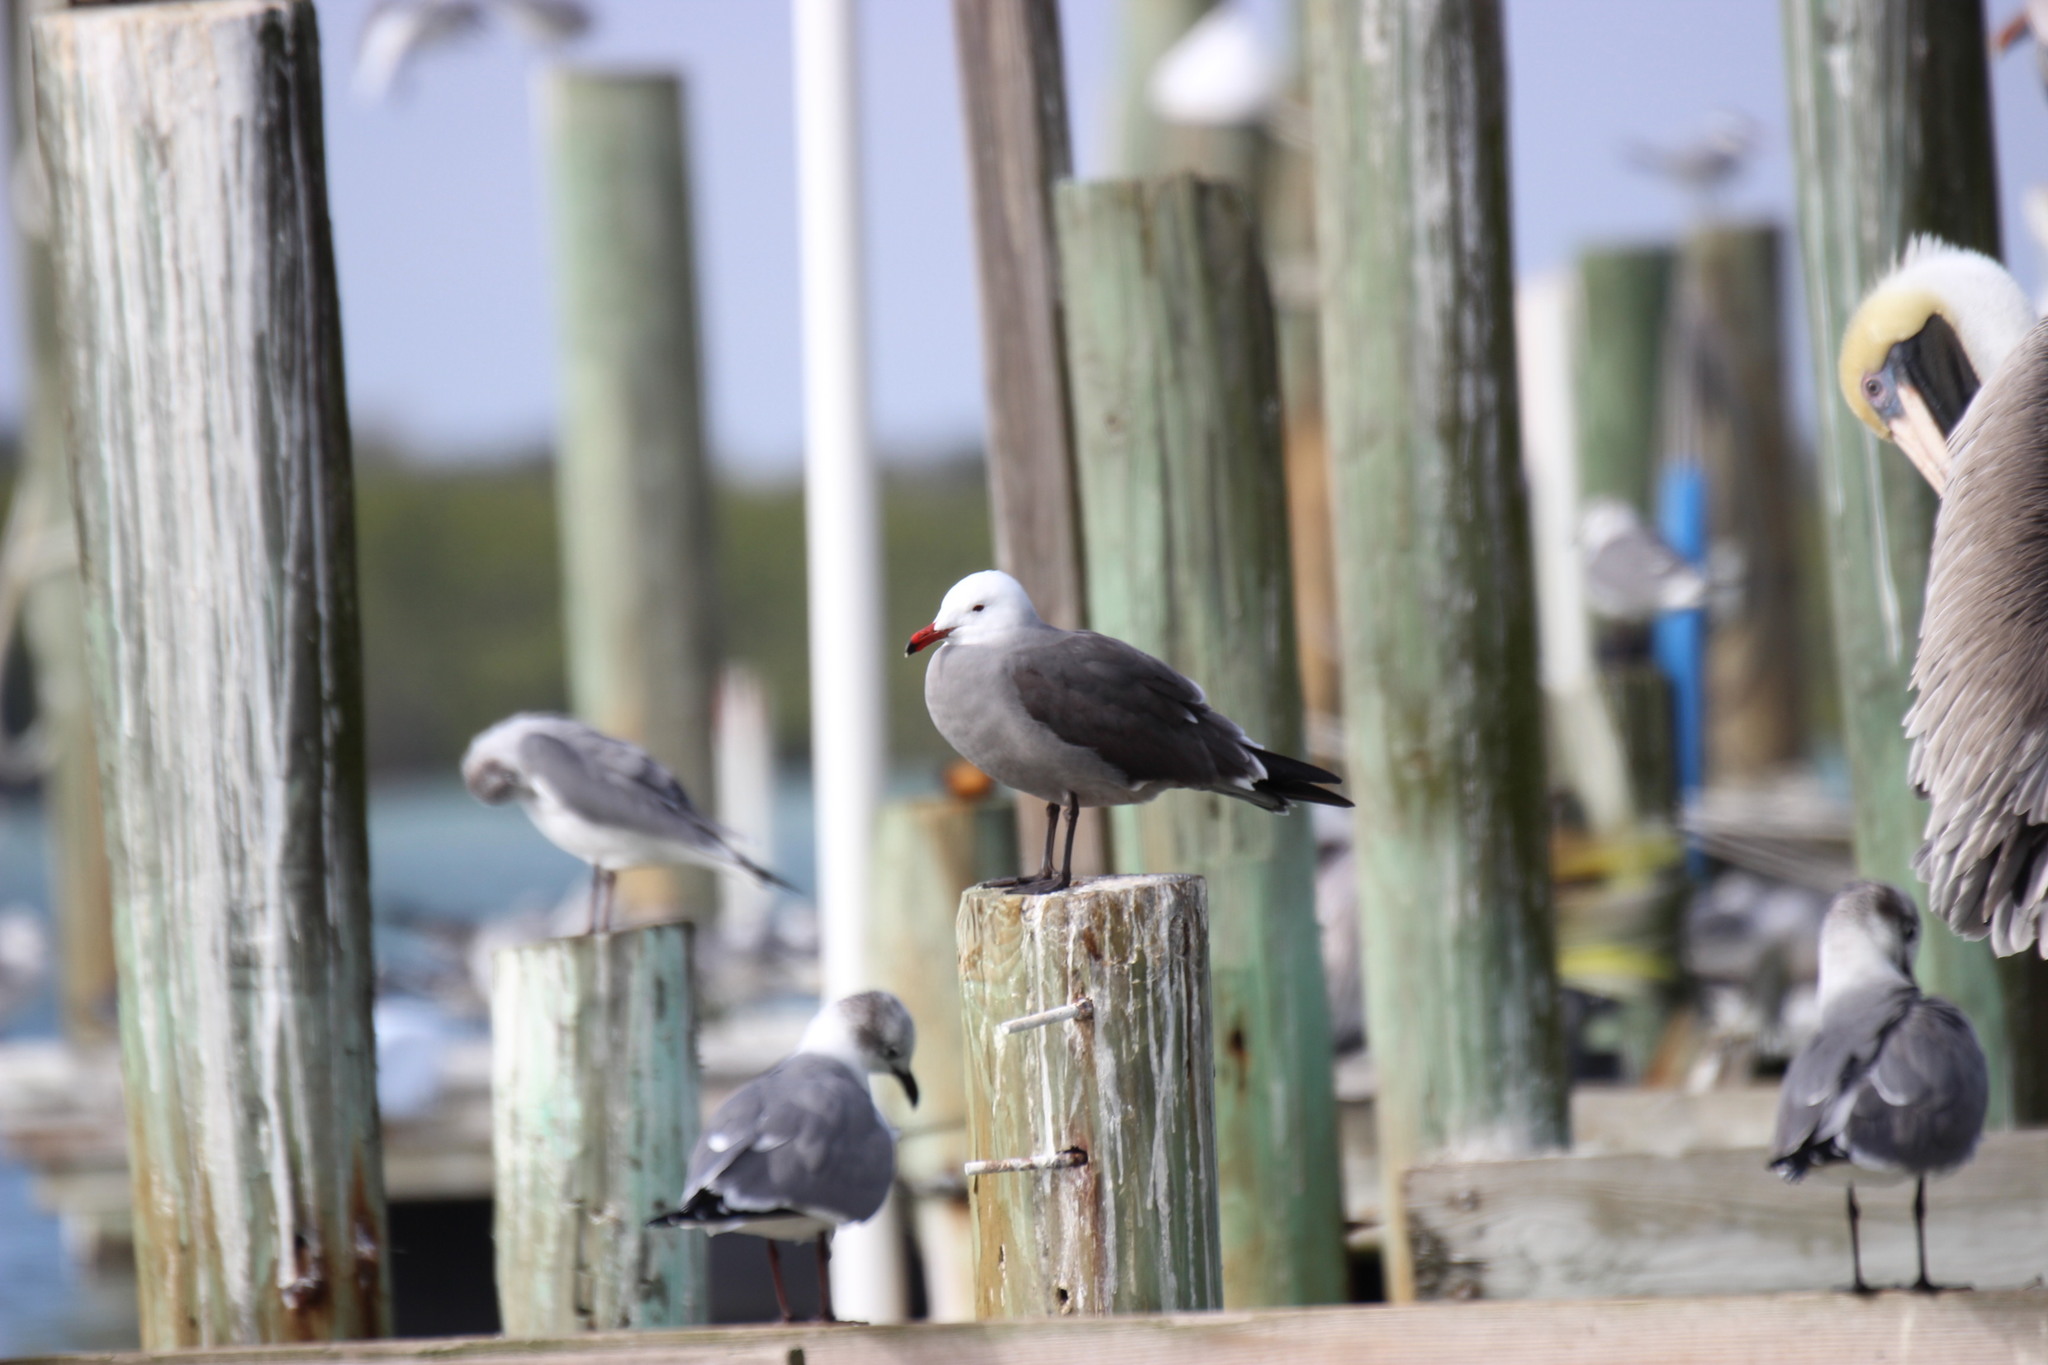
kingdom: Animalia
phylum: Chordata
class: Aves
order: Charadriiformes
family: Laridae
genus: Larus
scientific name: Larus heermanni
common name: Heermann's gull
